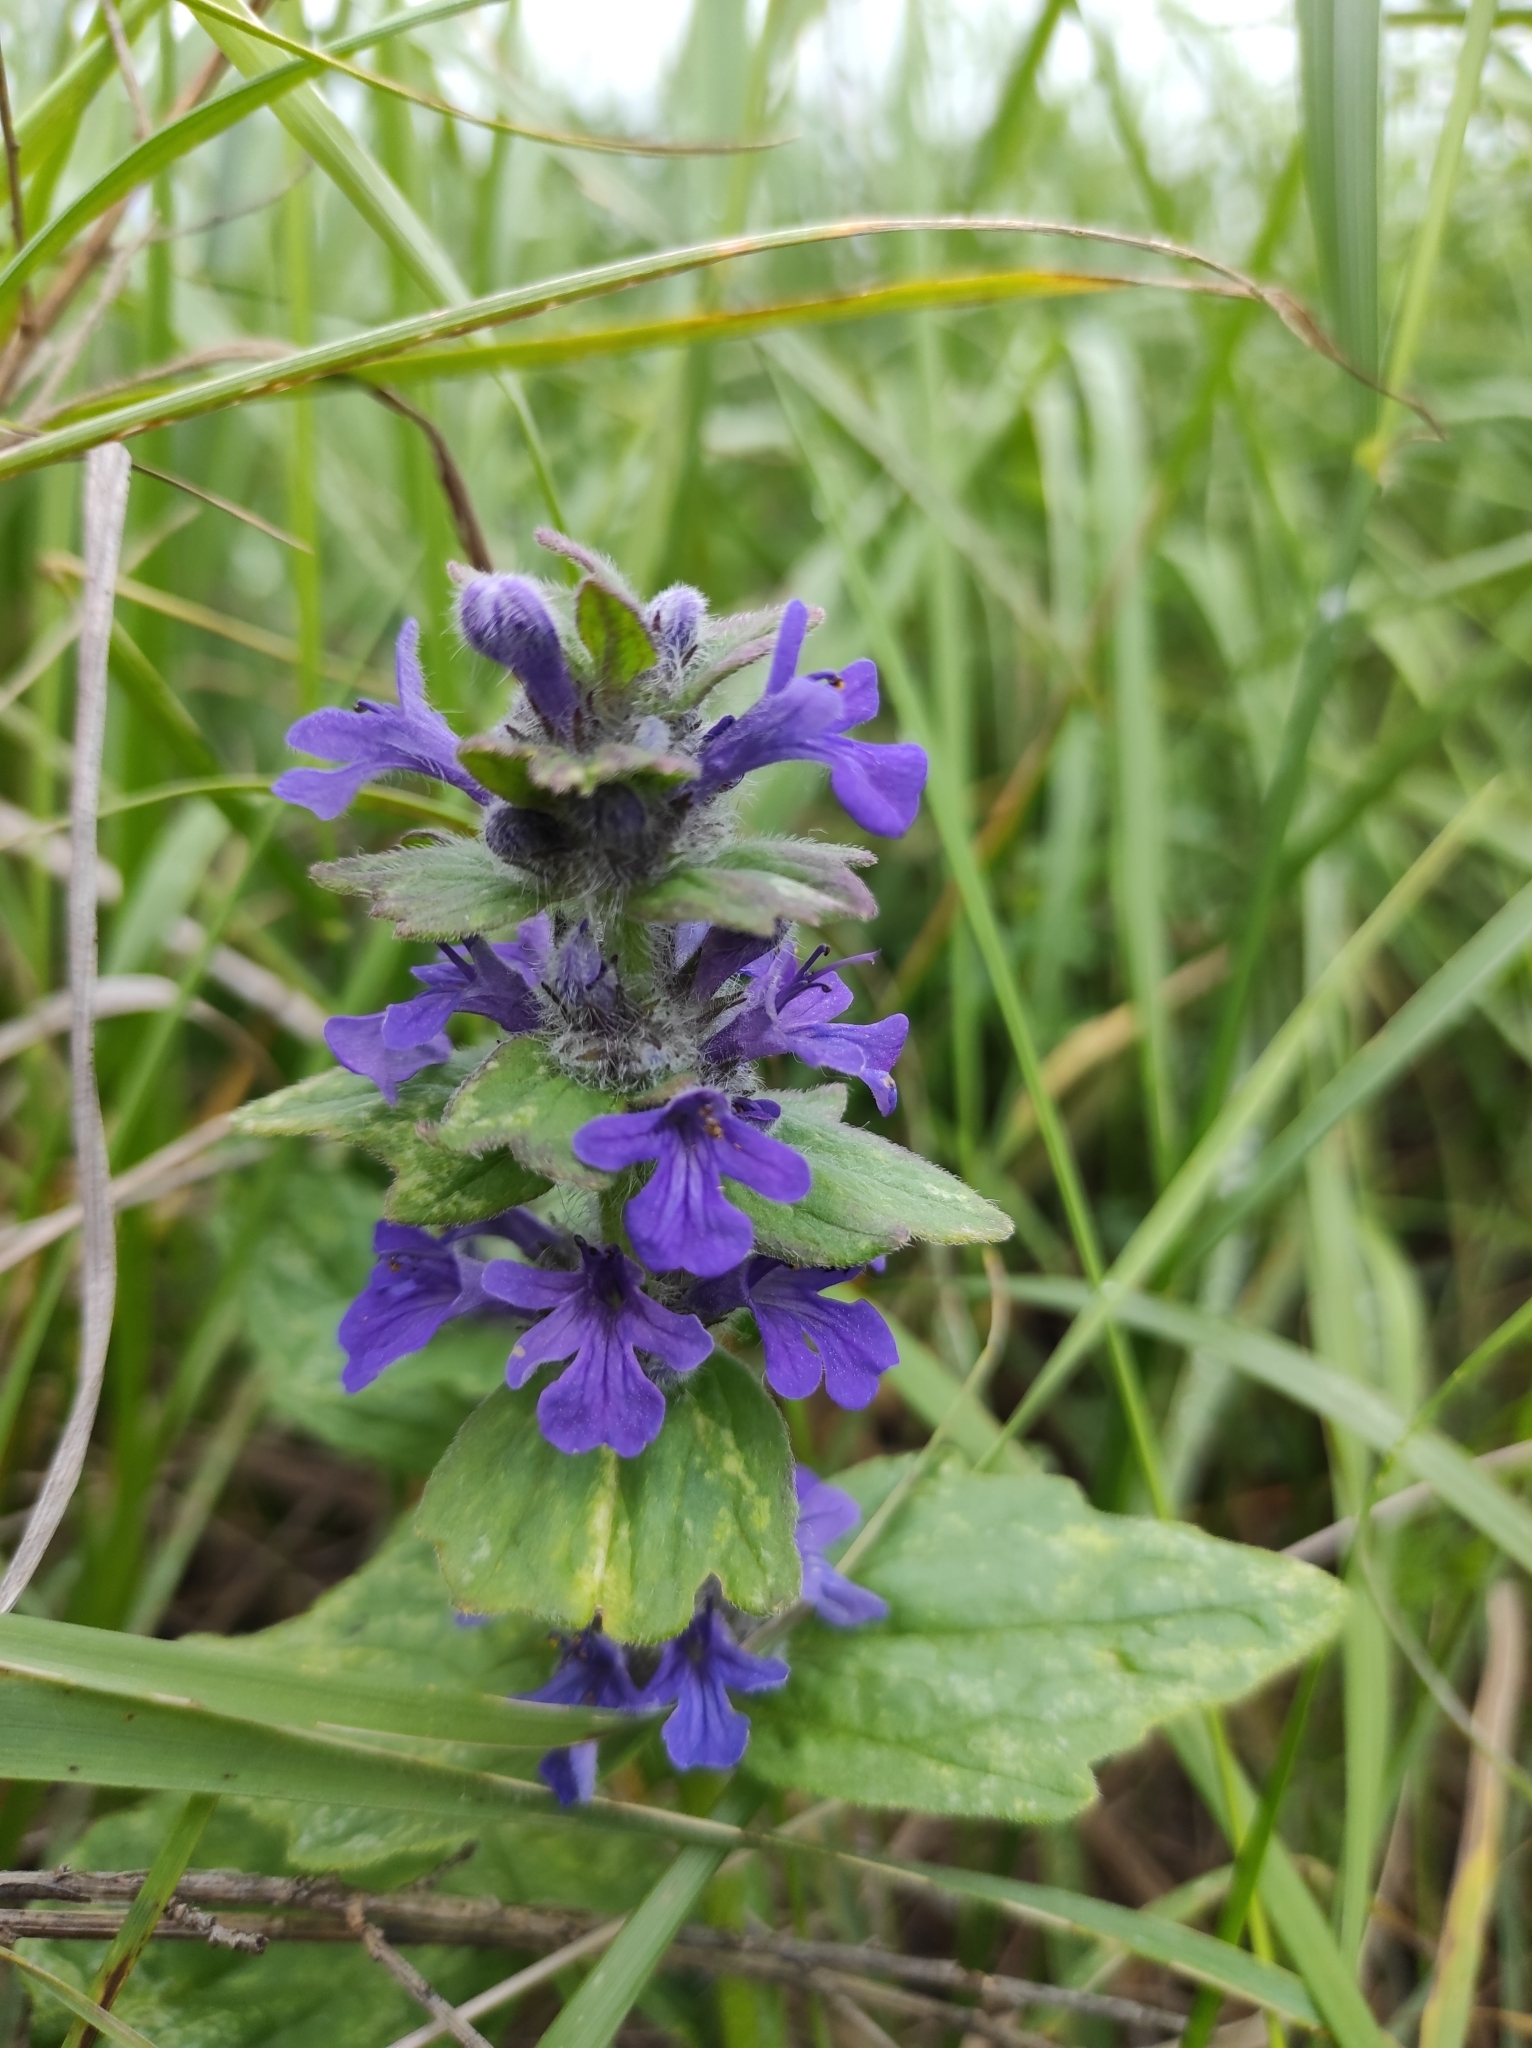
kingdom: Plantae
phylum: Tracheophyta
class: Magnoliopsida
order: Lamiales
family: Lamiaceae
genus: Ajuga
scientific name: Ajuga genevensis
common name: Blue bugle
